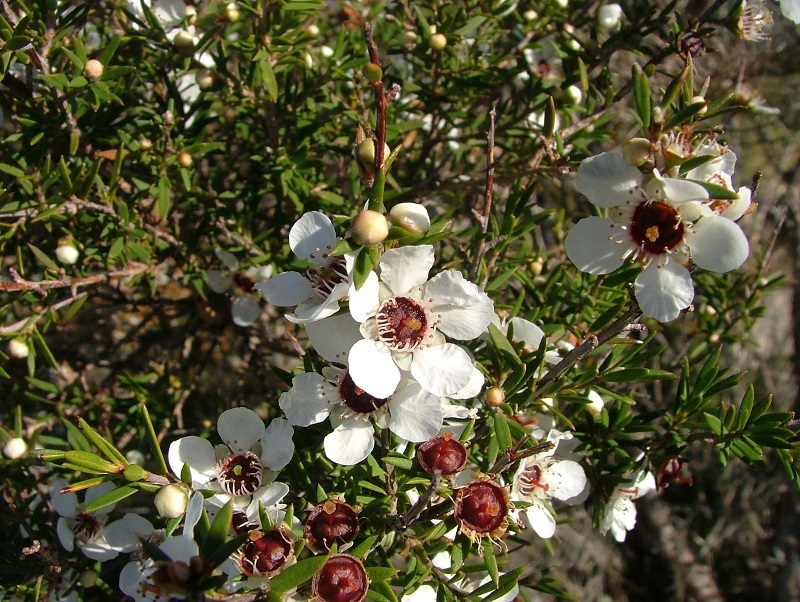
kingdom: Plantae
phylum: Tracheophyta
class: Magnoliopsida
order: Myrtales
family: Myrtaceae
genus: Leptospermum
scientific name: Leptospermum scoparium
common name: Broom tea-tree
